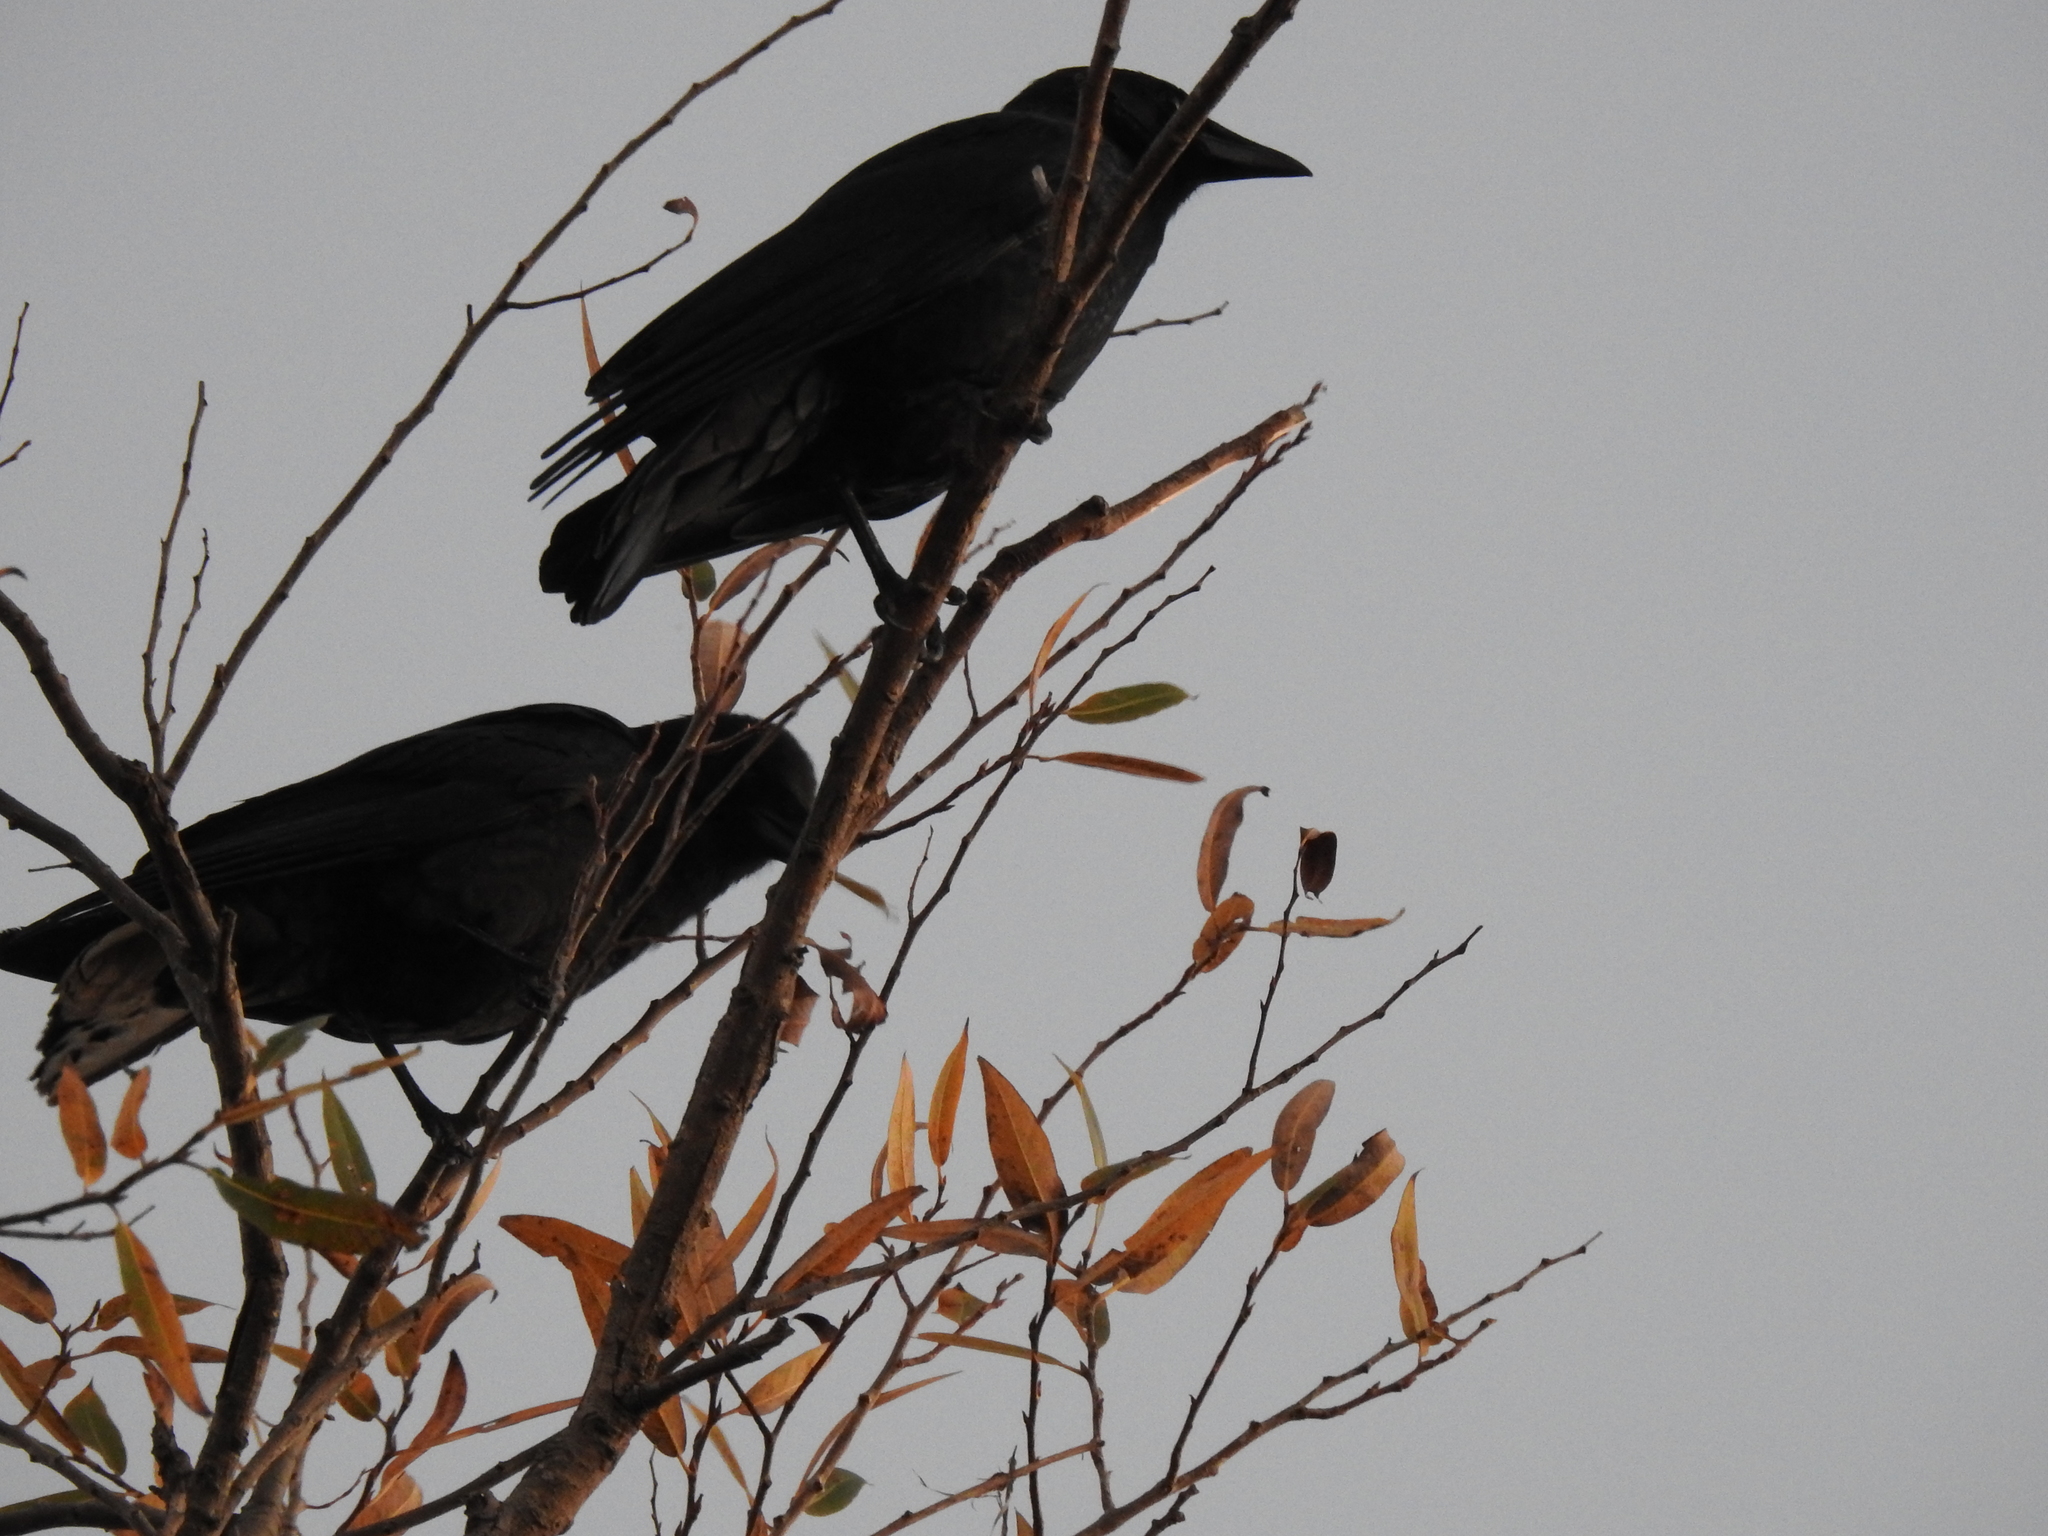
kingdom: Animalia
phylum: Chordata
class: Aves
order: Passeriformes
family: Corvidae
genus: Corvus
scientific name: Corvus brachyrhynchos
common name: American crow
